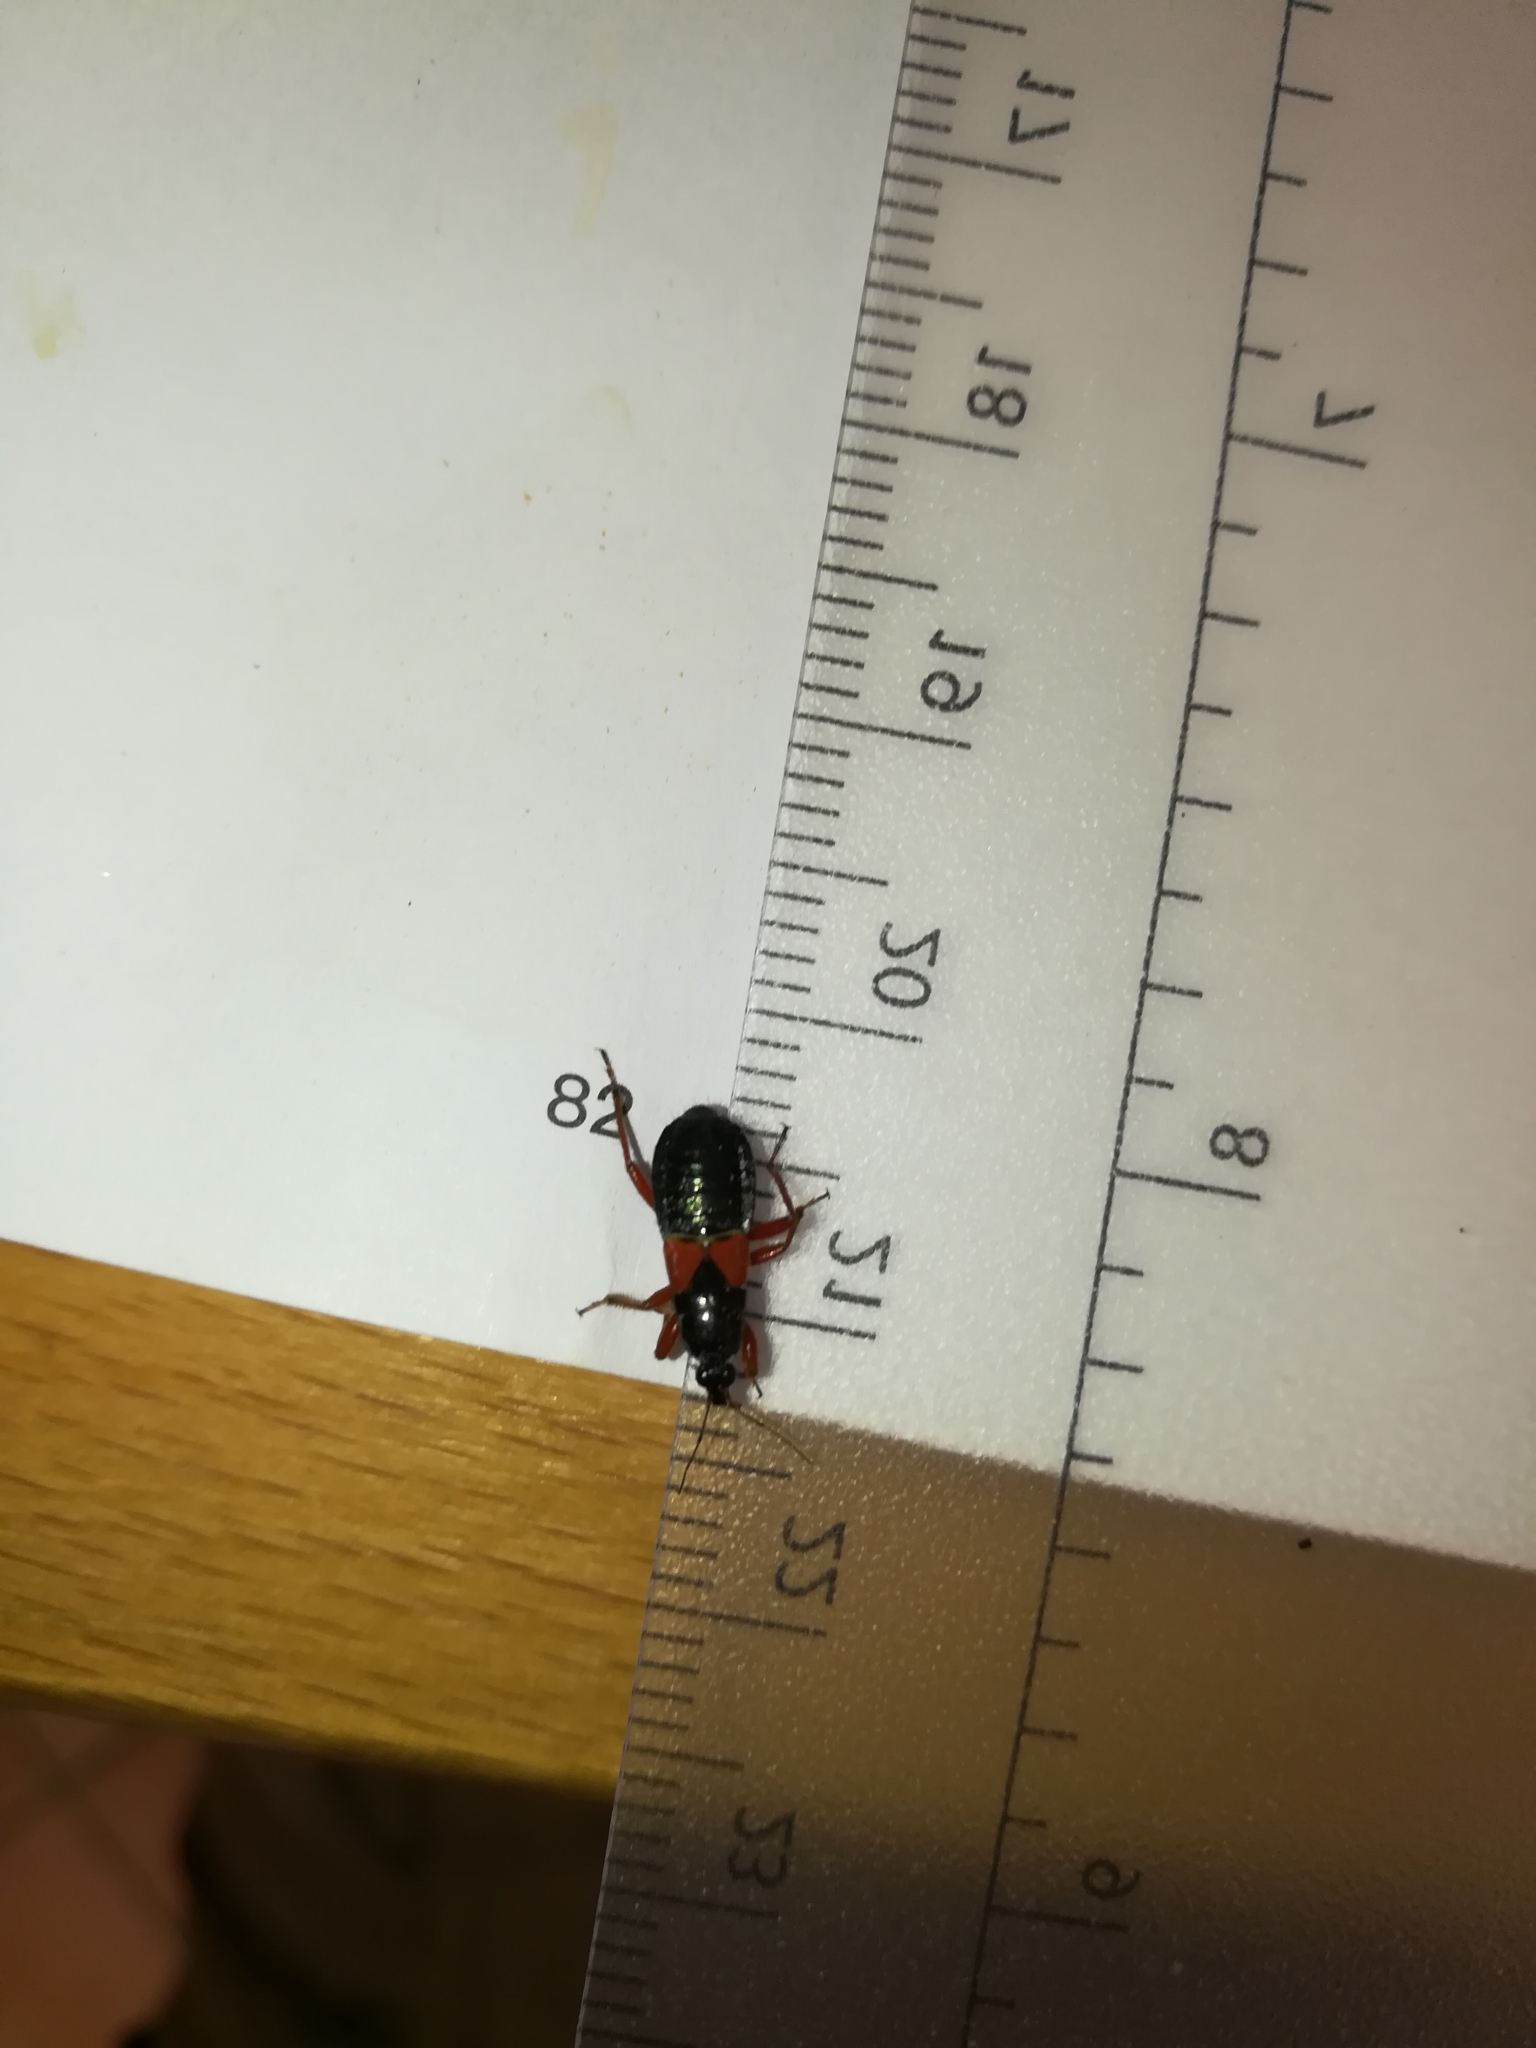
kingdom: Animalia
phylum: Arthropoda
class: Insecta
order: Hemiptera
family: Nabidae
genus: Prostemma
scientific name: Prostemma guttula
